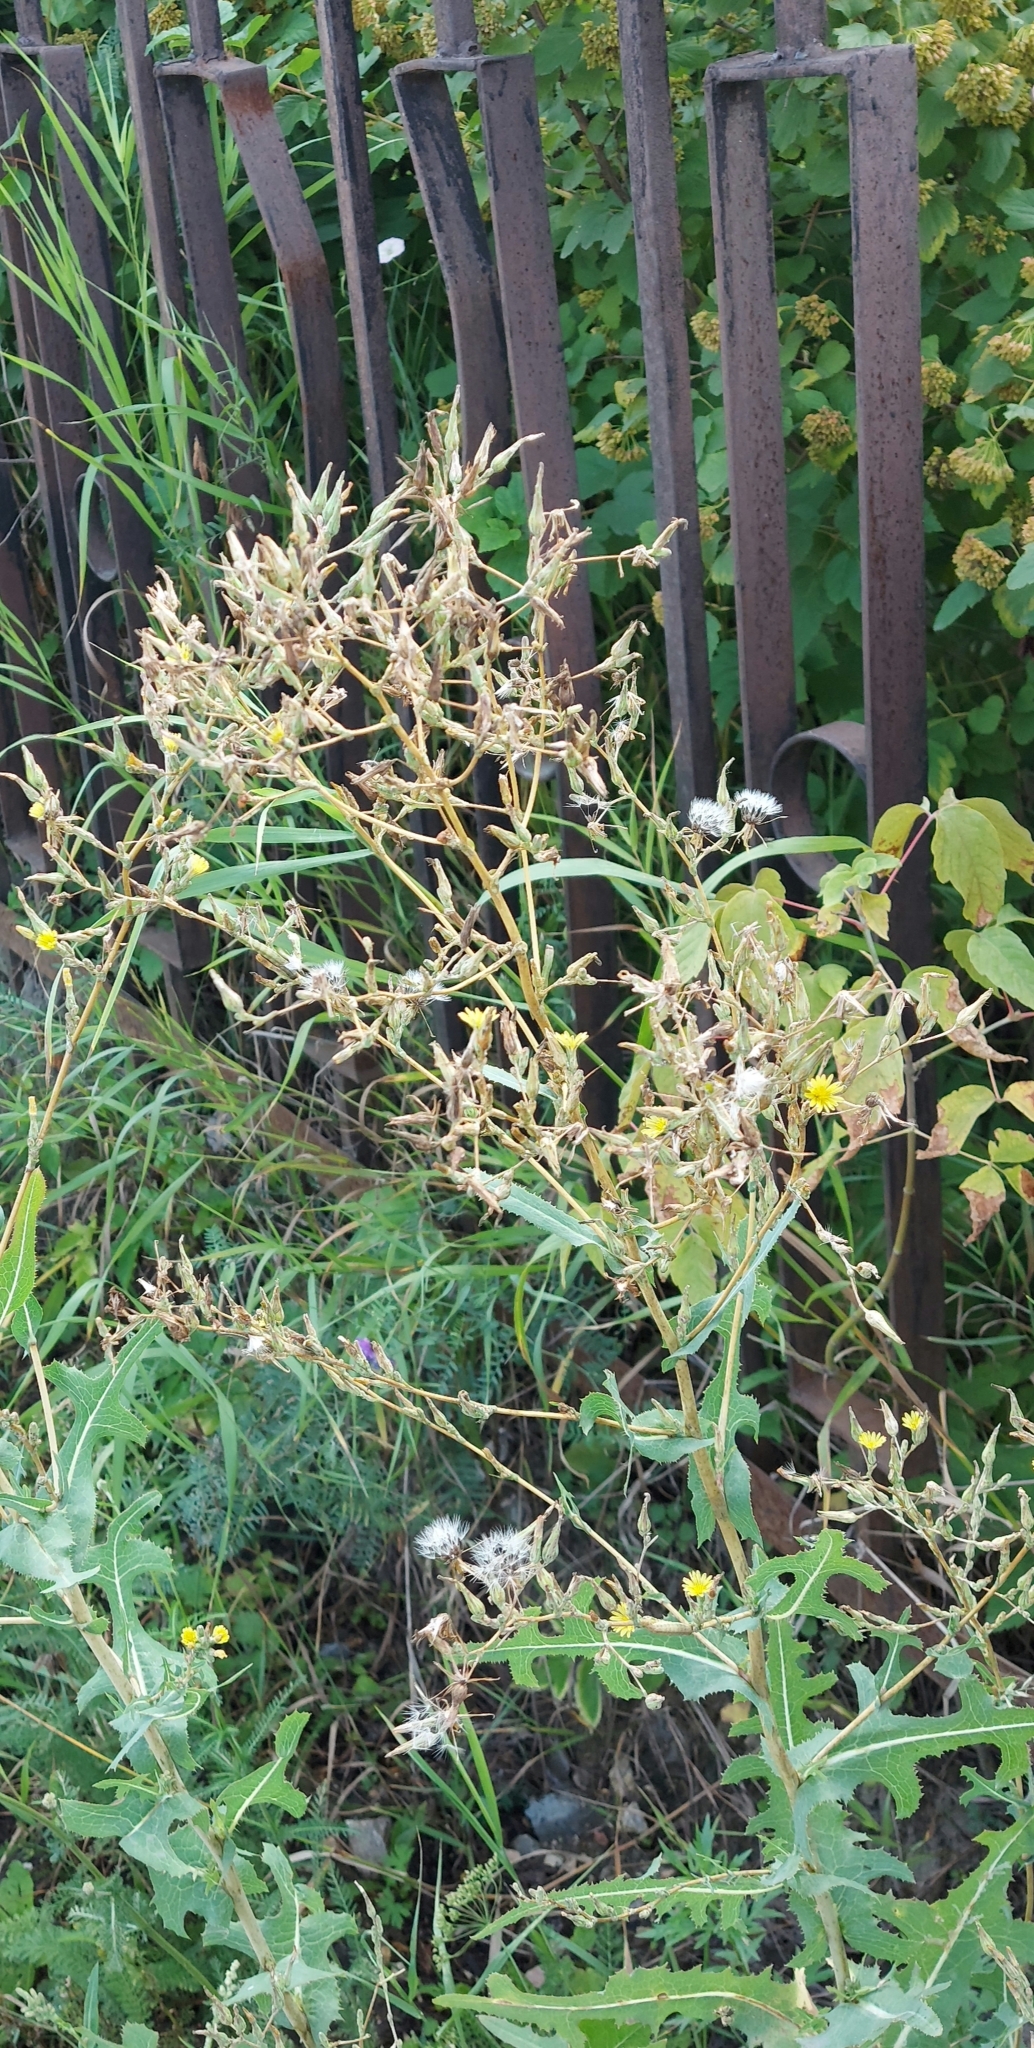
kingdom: Plantae
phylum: Tracheophyta
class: Magnoliopsida
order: Asterales
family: Asteraceae
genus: Lactuca
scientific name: Lactuca serriola
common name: Prickly lettuce
